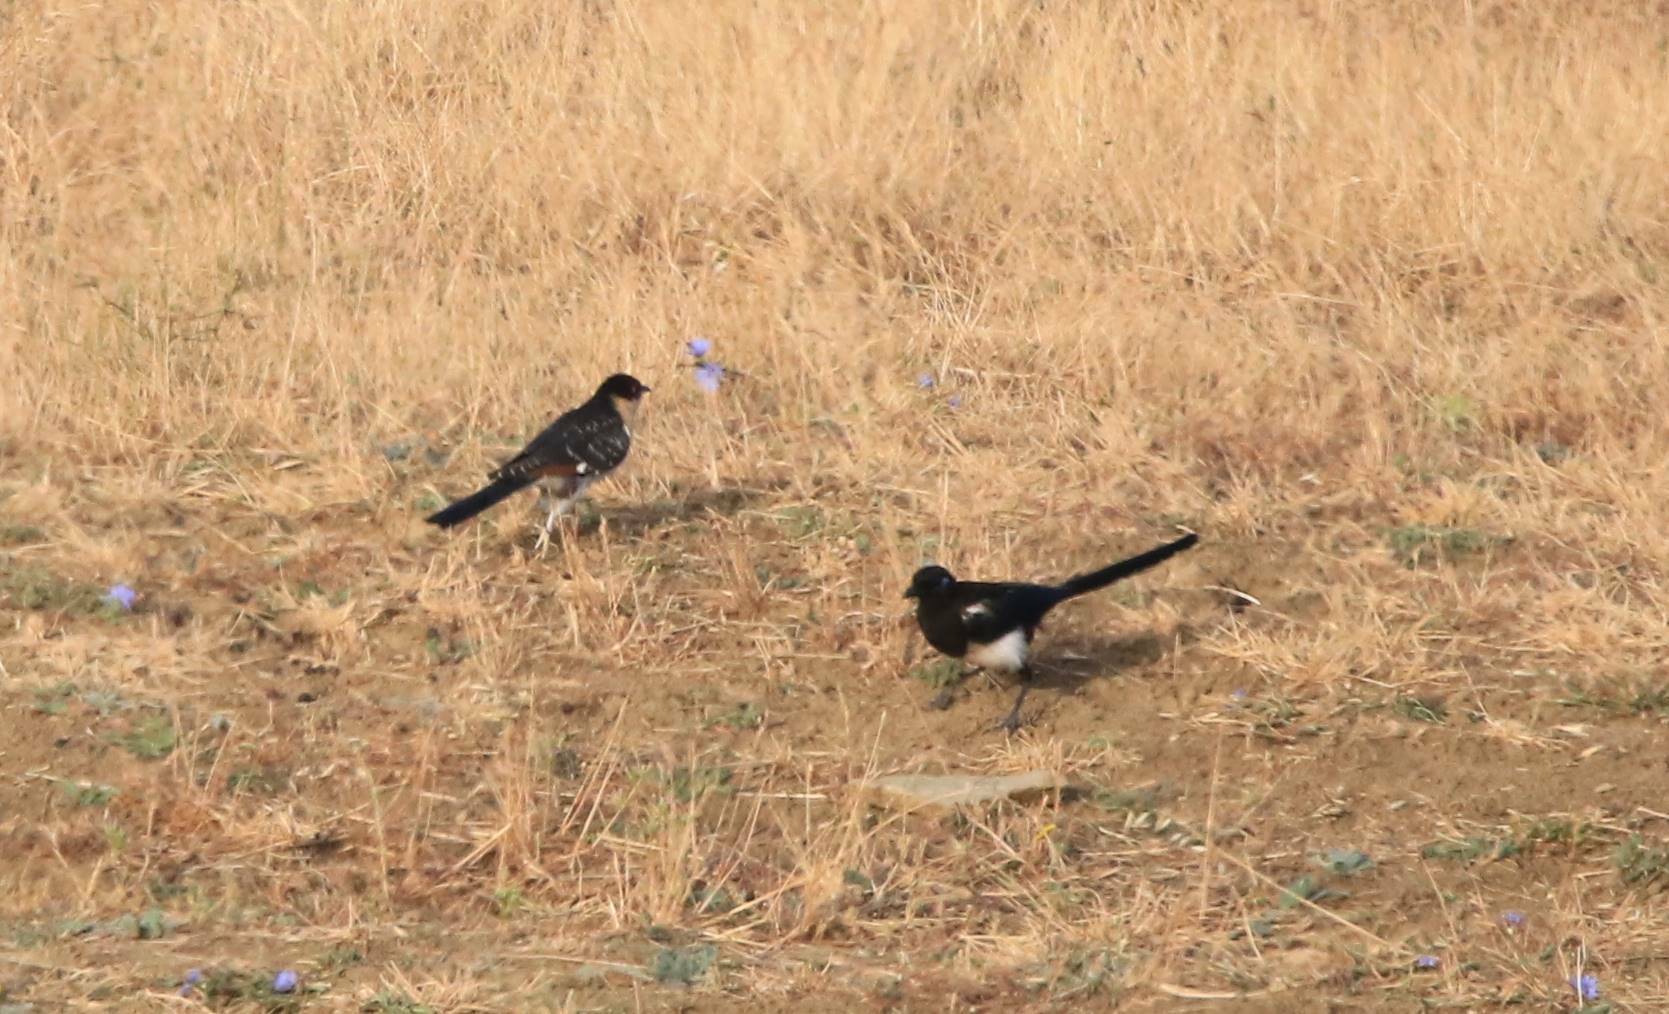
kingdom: Animalia
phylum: Chordata
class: Aves
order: Cuculiformes
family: Cuculidae
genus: Clamator
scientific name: Clamator glandarius
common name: Great spotted cuckoo
